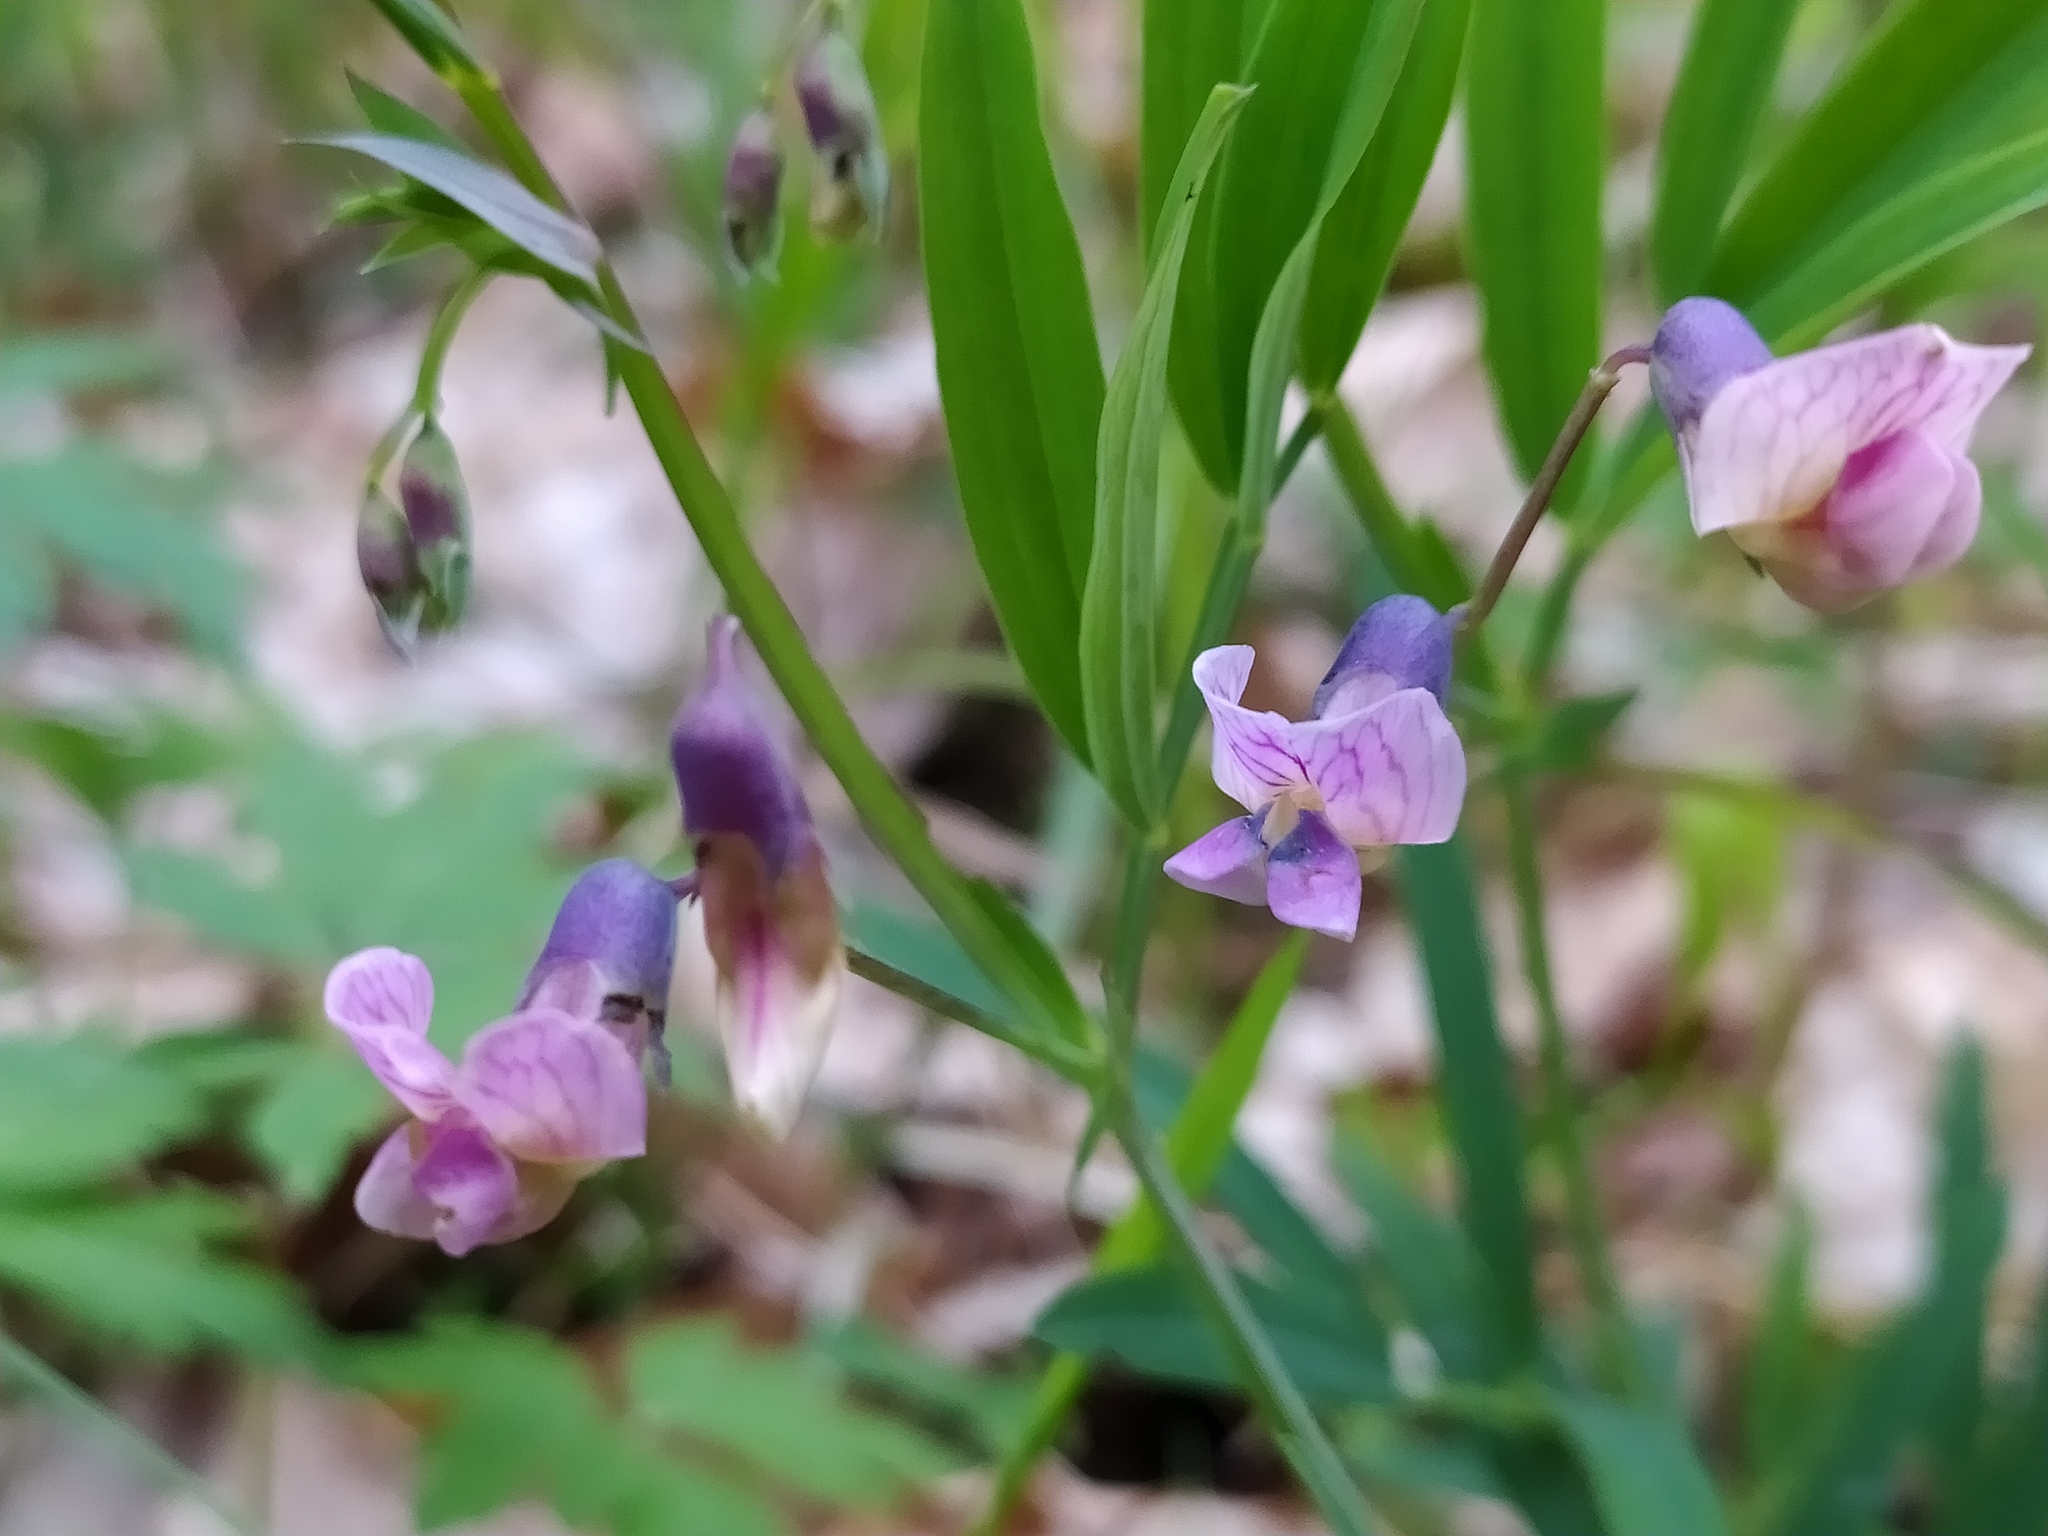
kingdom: Plantae
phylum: Tracheophyta
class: Magnoliopsida
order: Fabales
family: Fabaceae
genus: Lathyrus
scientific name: Lathyrus linifolius
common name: Bitter-vetch
